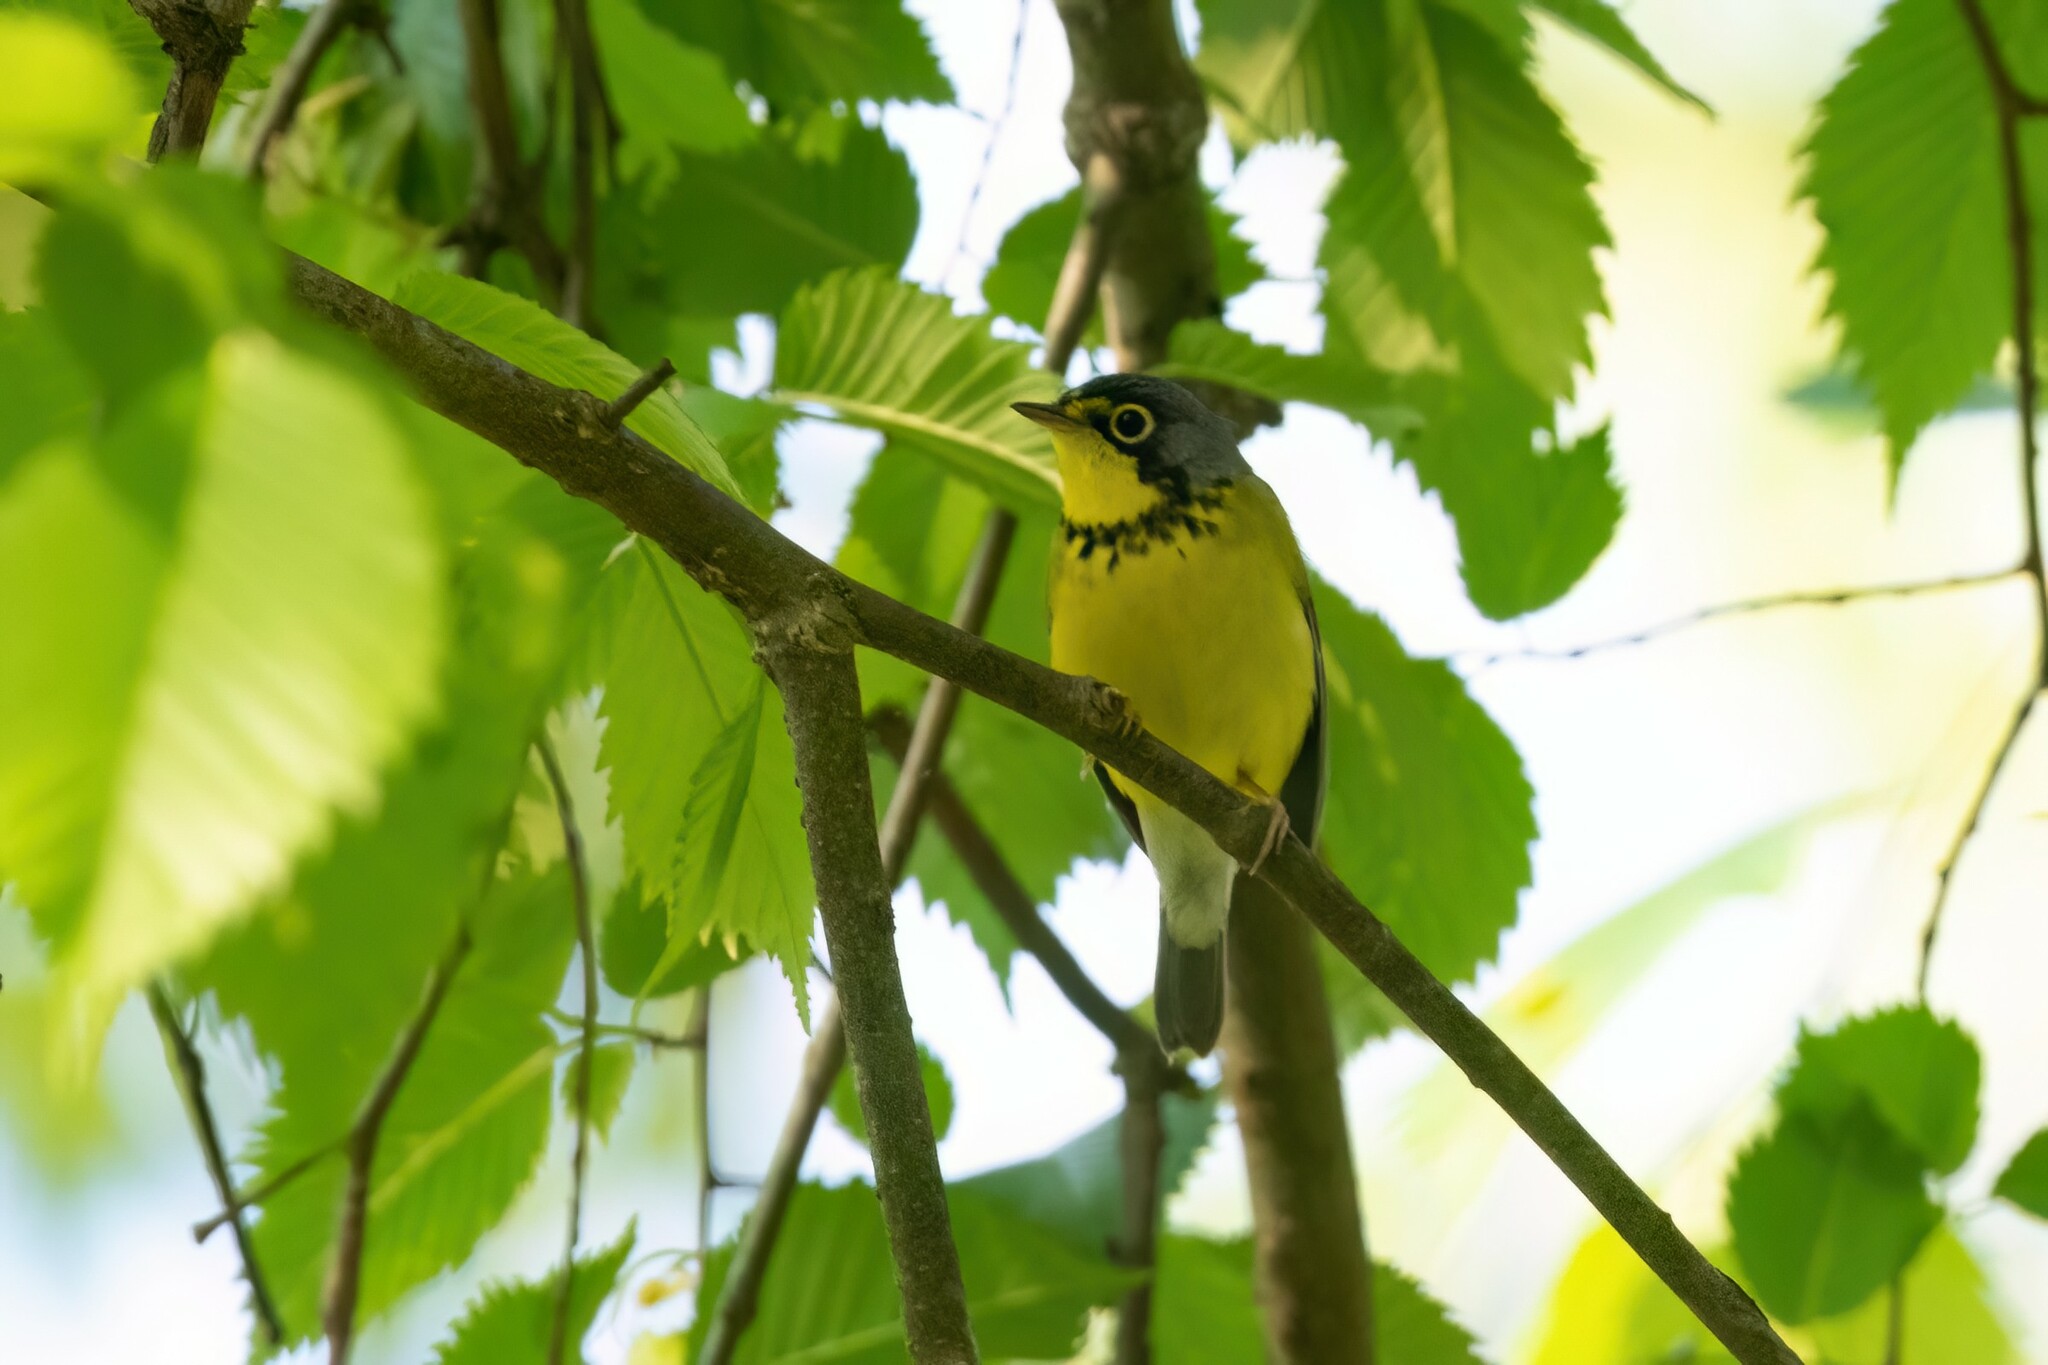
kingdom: Animalia
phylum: Chordata
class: Aves
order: Passeriformes
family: Parulidae
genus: Cardellina
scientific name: Cardellina canadensis
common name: Canada warbler
